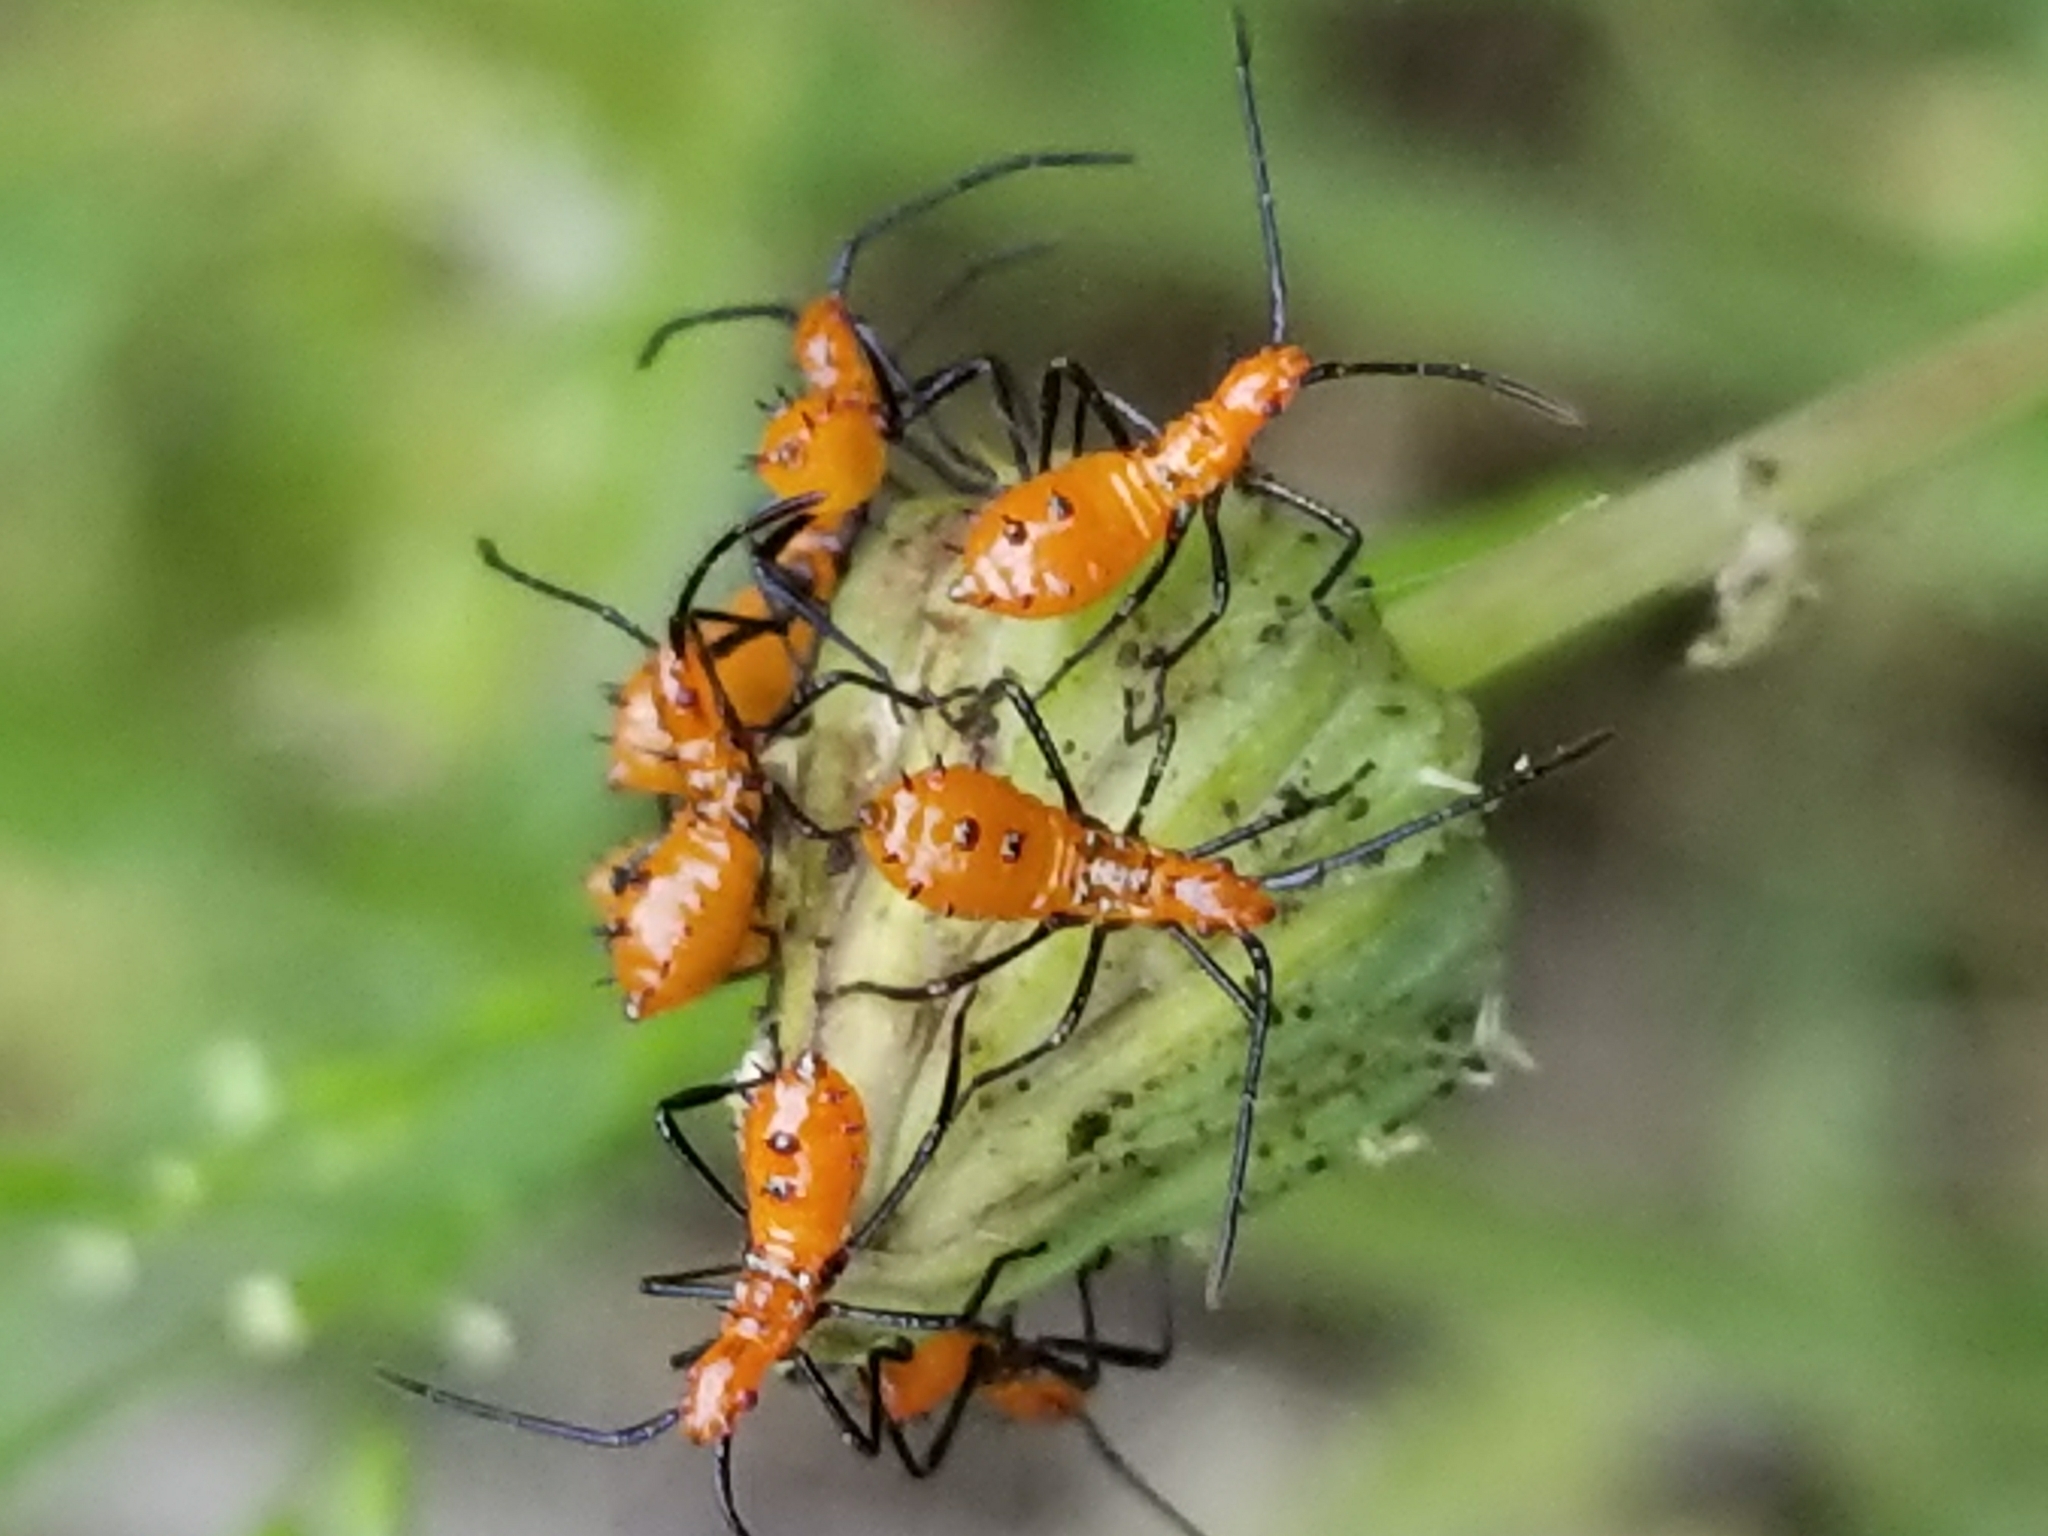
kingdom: Animalia
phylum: Arthropoda
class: Insecta
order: Hemiptera
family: Coreidae
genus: Leptoglossus
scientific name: Leptoglossus phyllopus
